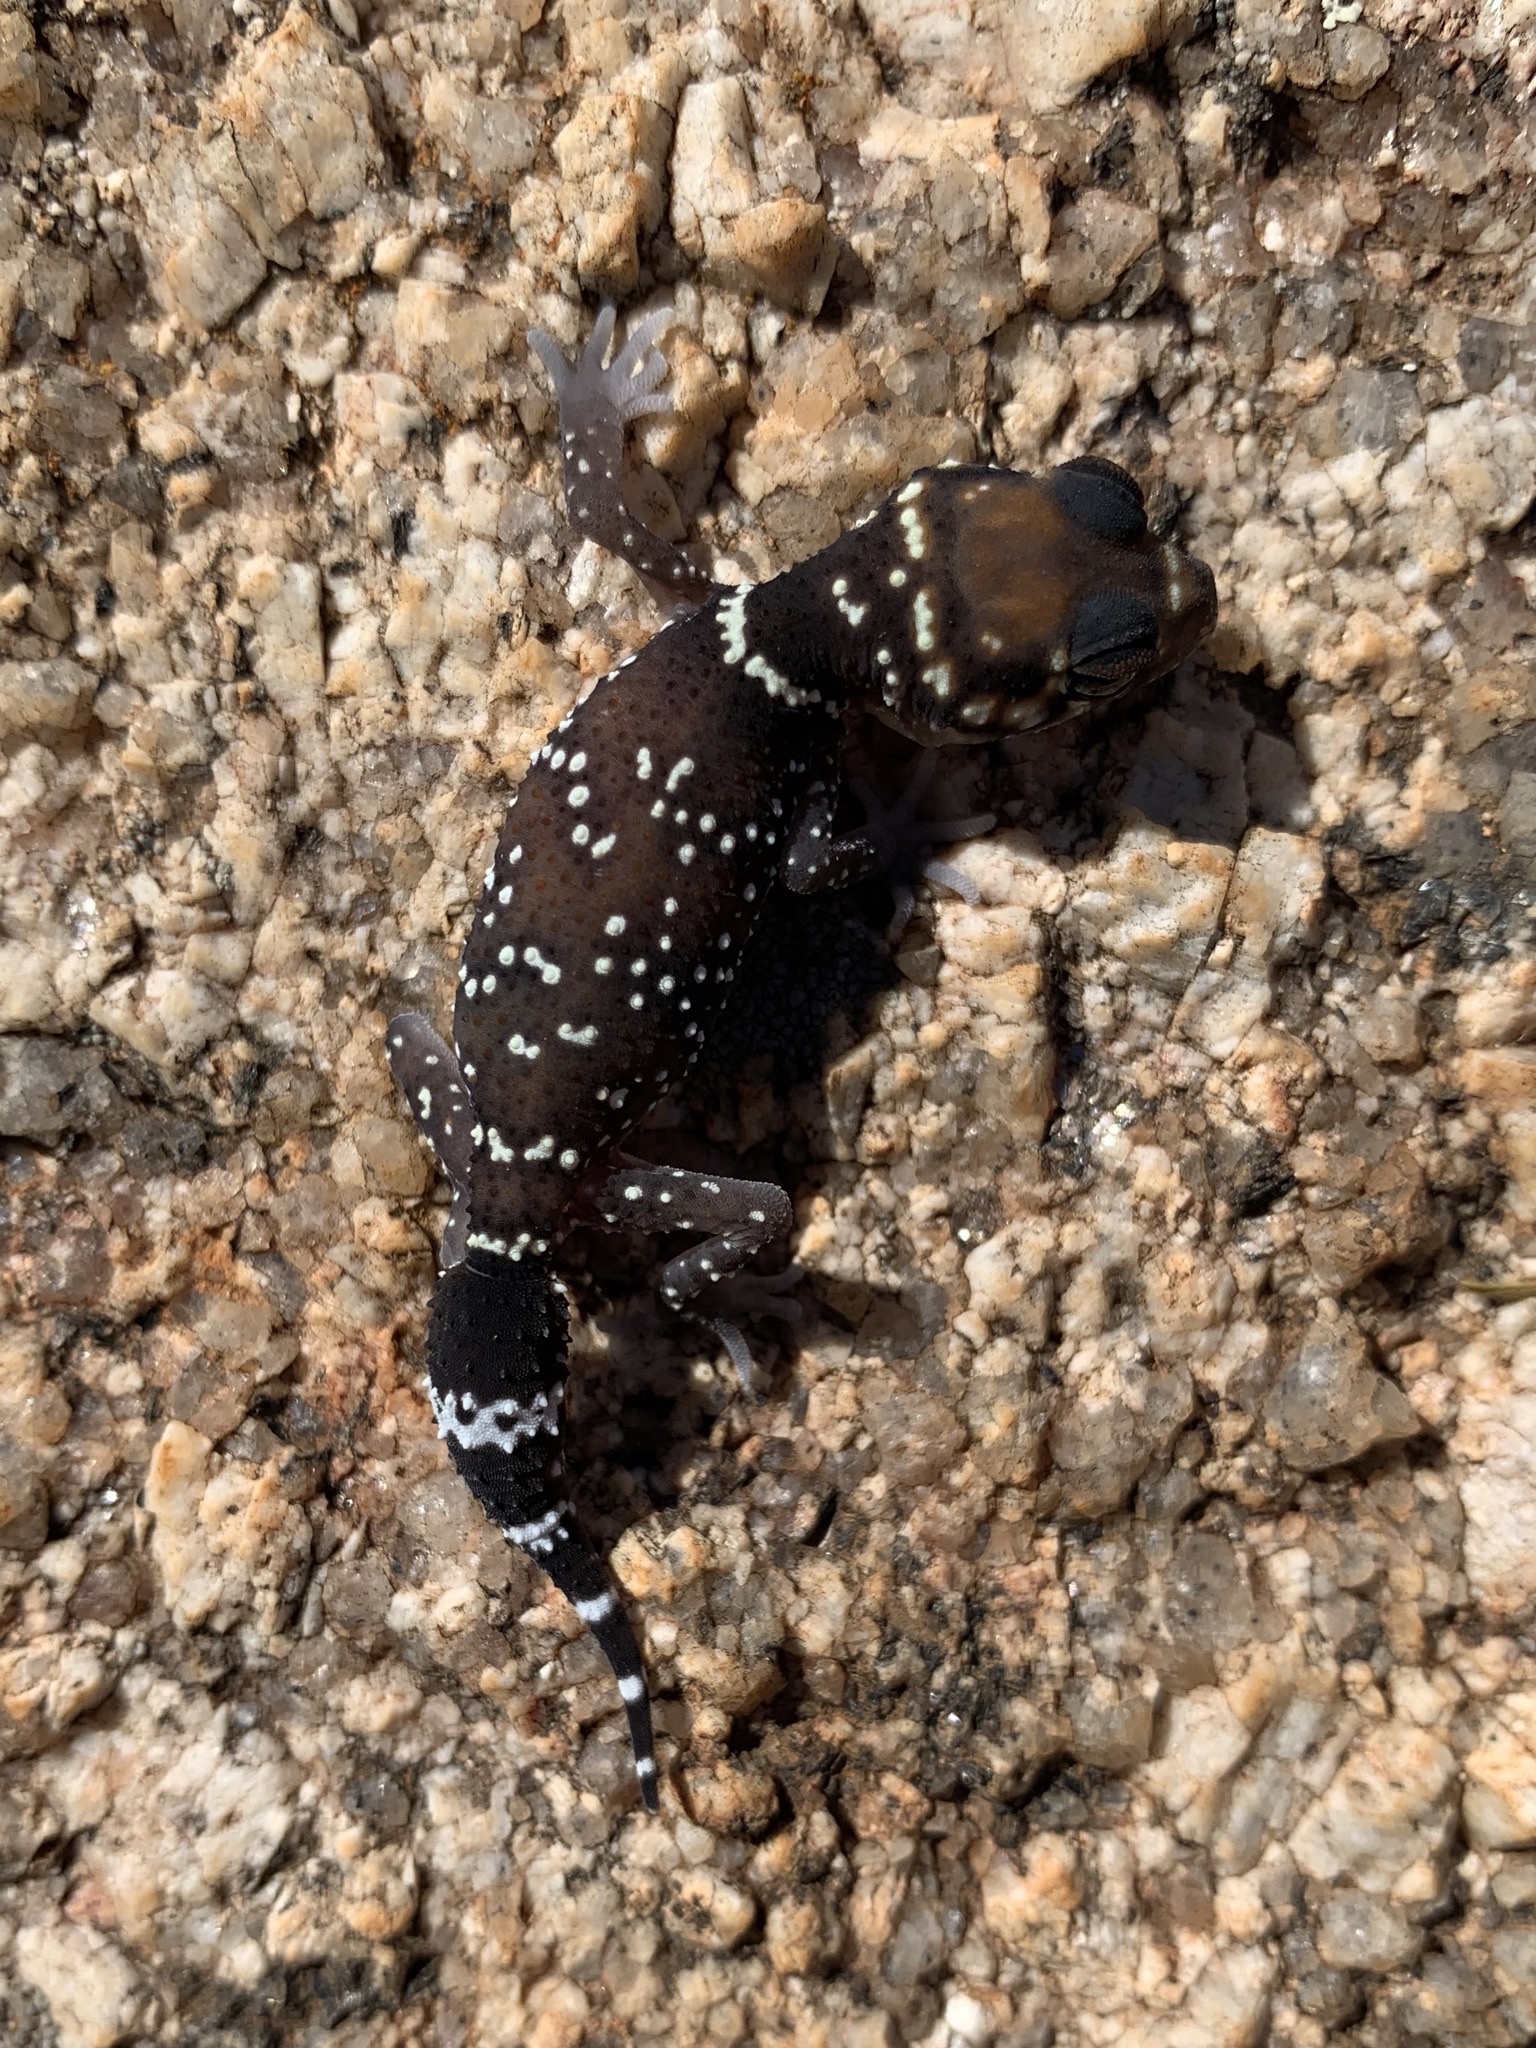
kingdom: Animalia
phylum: Chordata
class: Squamata
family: Carphodactylidae
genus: Underwoodisaurus
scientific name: Underwoodisaurus milii
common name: Barking gecko
